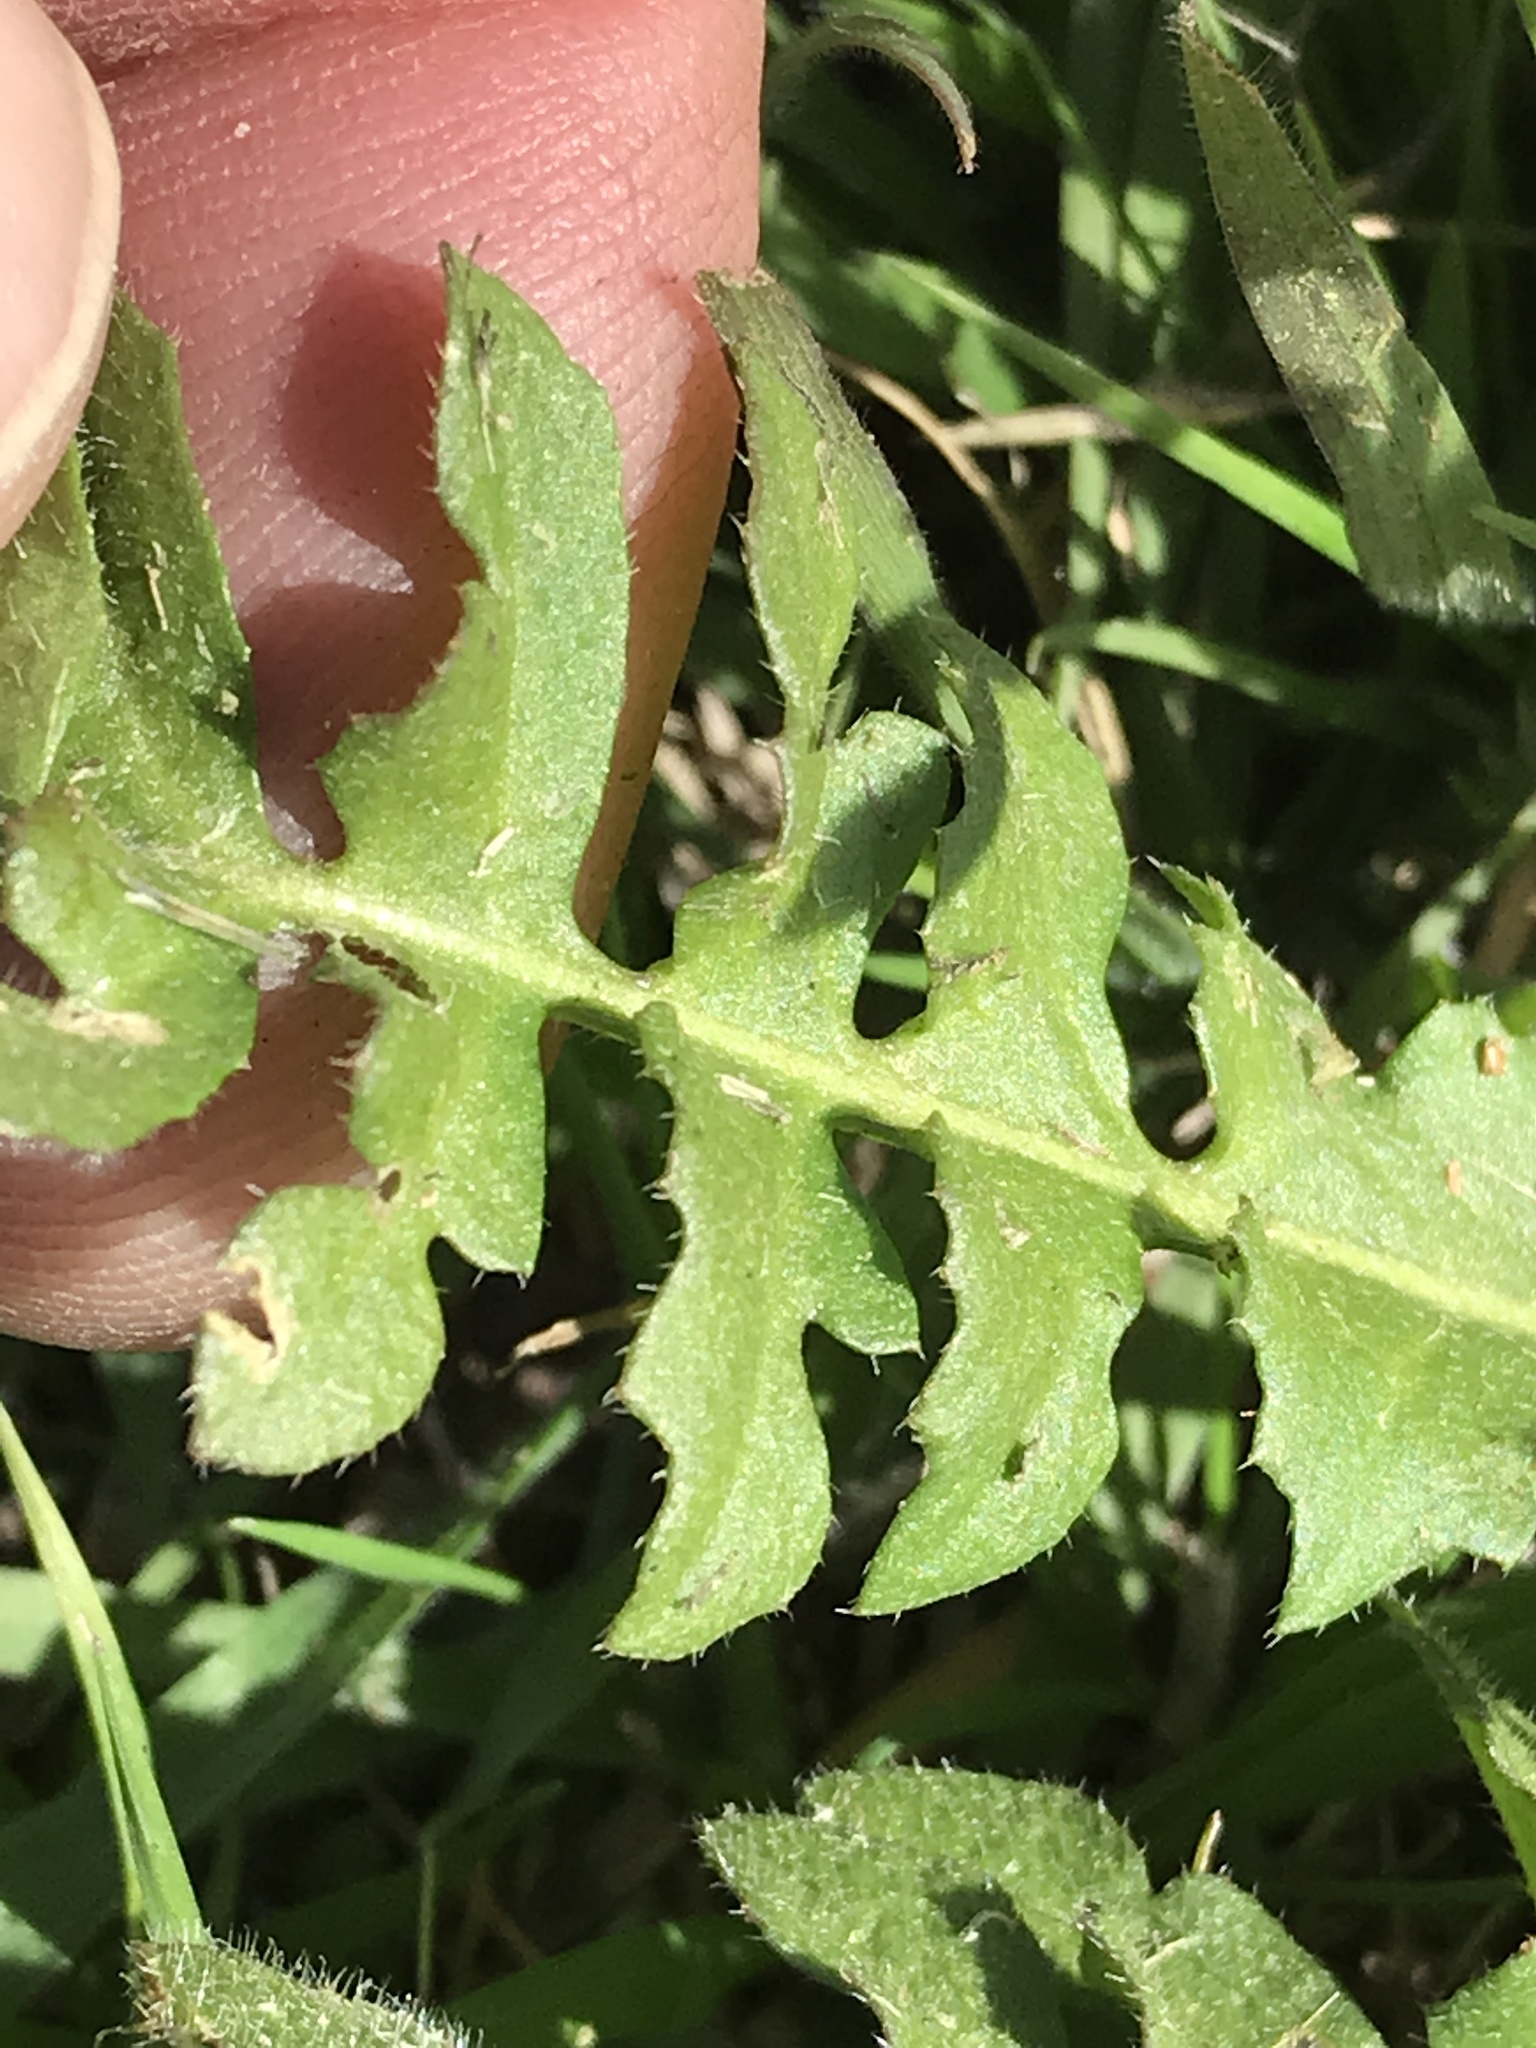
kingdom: Plantae
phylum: Tracheophyta
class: Magnoliopsida
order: Brassicales
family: Brassicaceae
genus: Capsella
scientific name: Capsella bursa-pastoris
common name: Shepherd's purse
